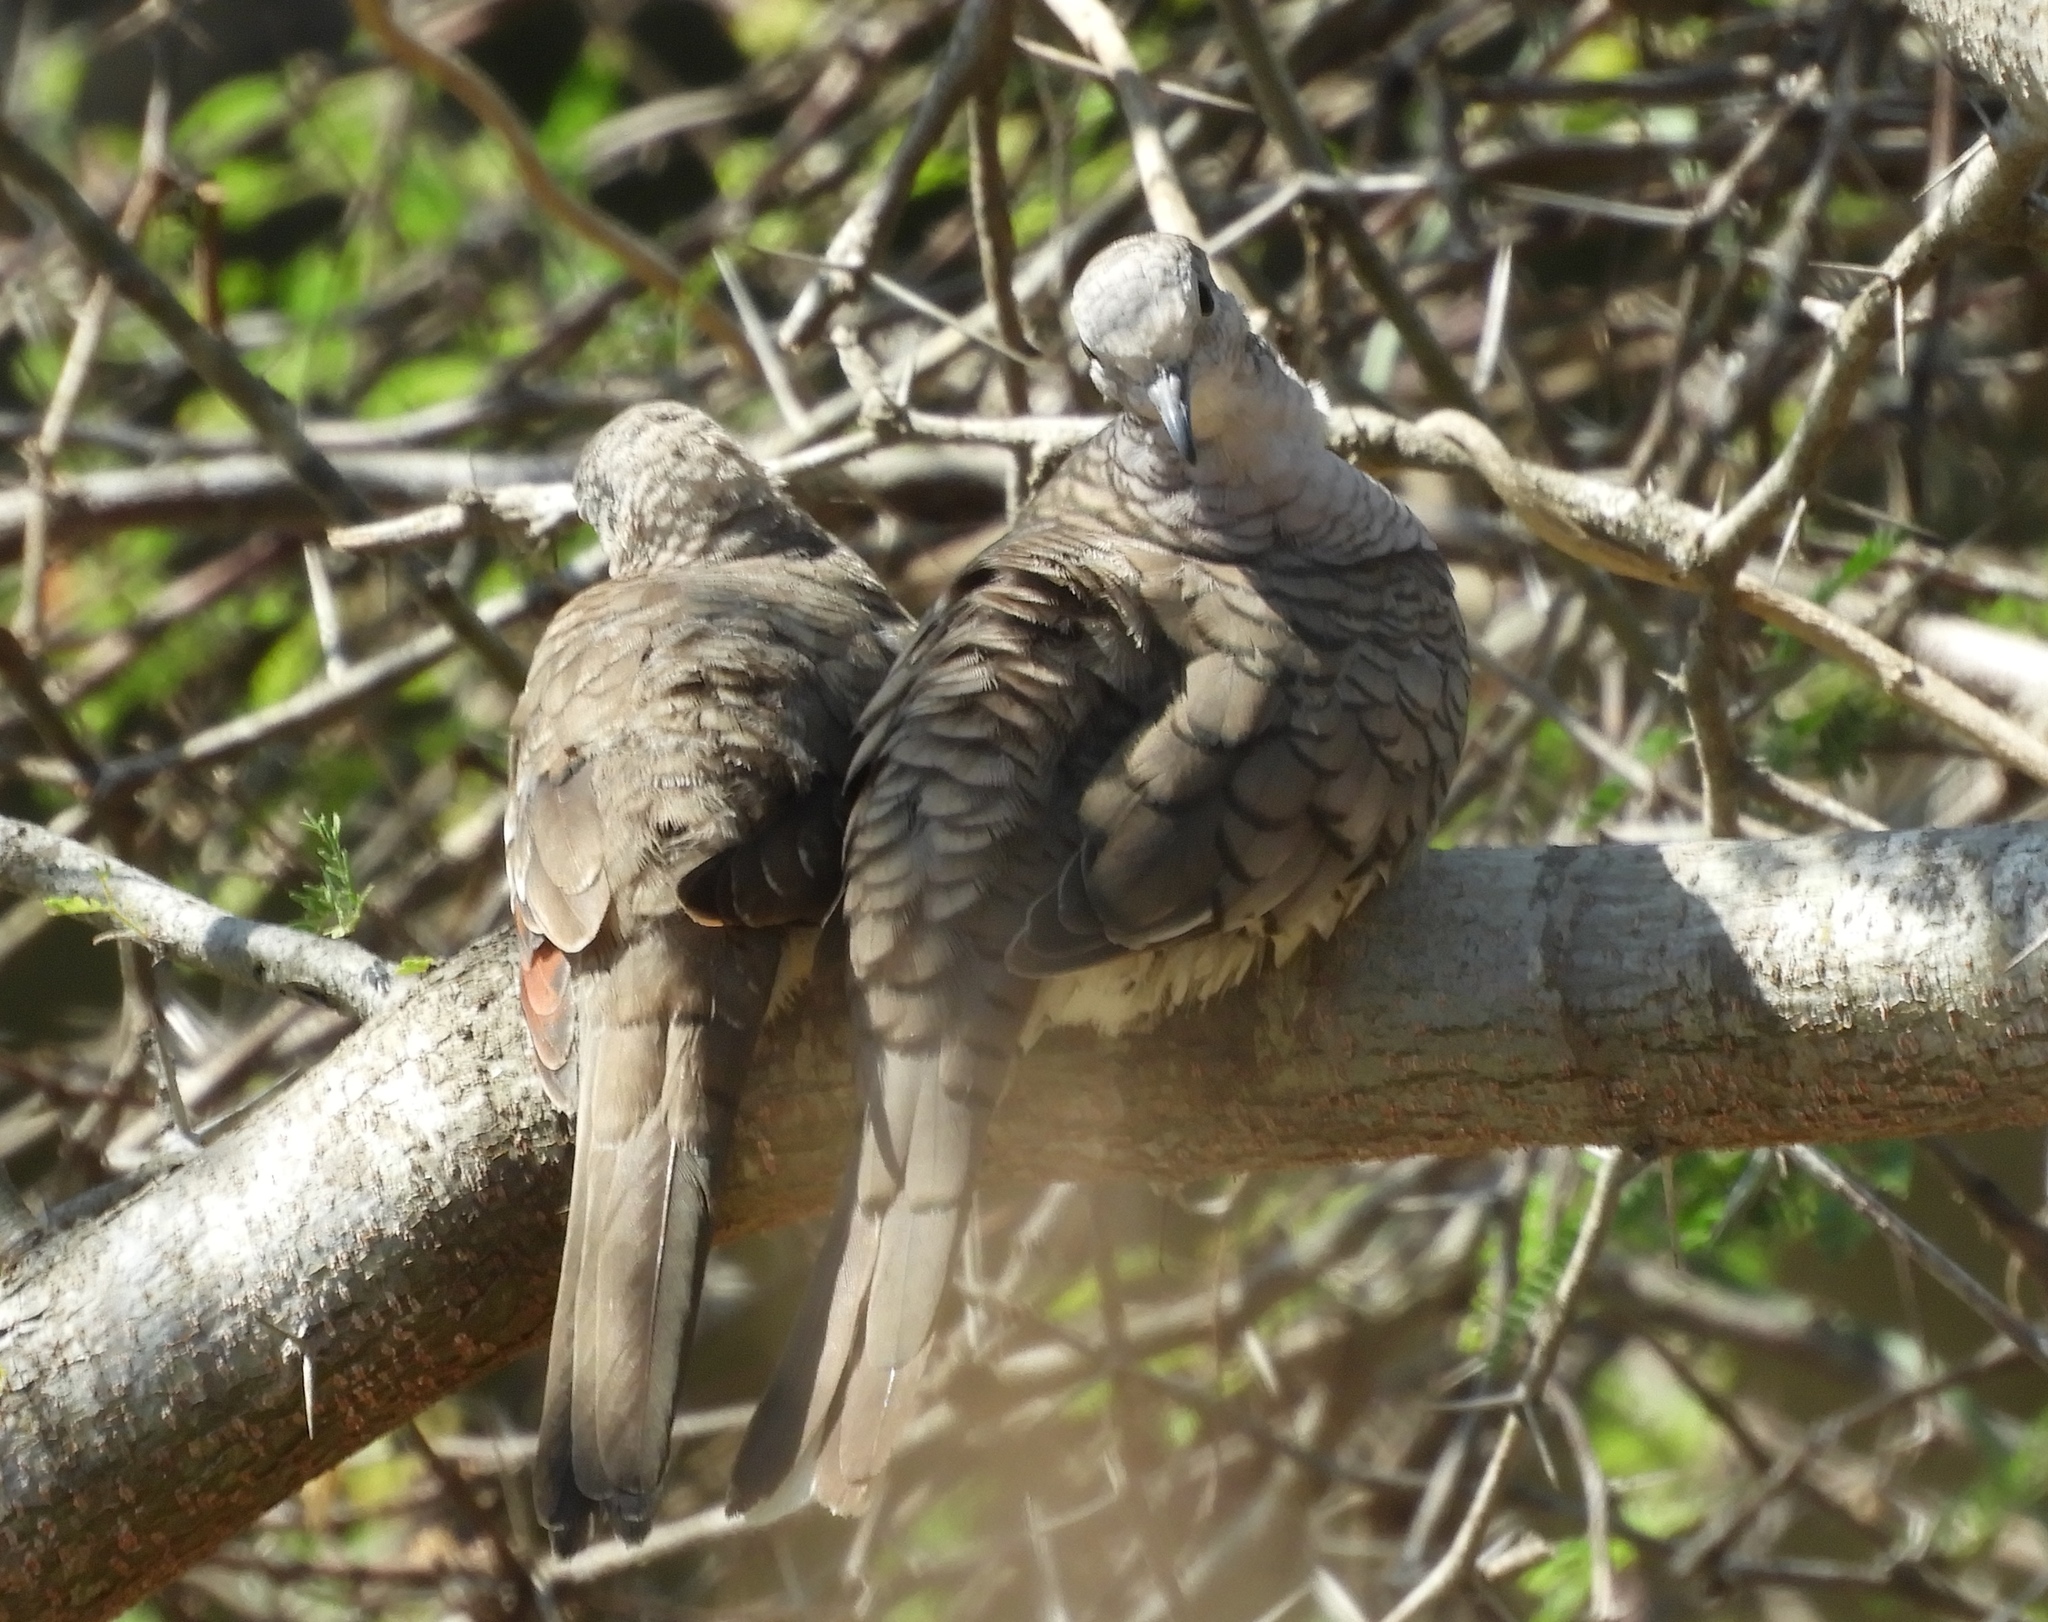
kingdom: Animalia
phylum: Chordata
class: Aves
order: Columbiformes
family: Columbidae
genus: Columbina
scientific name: Columbina inca
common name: Inca dove
